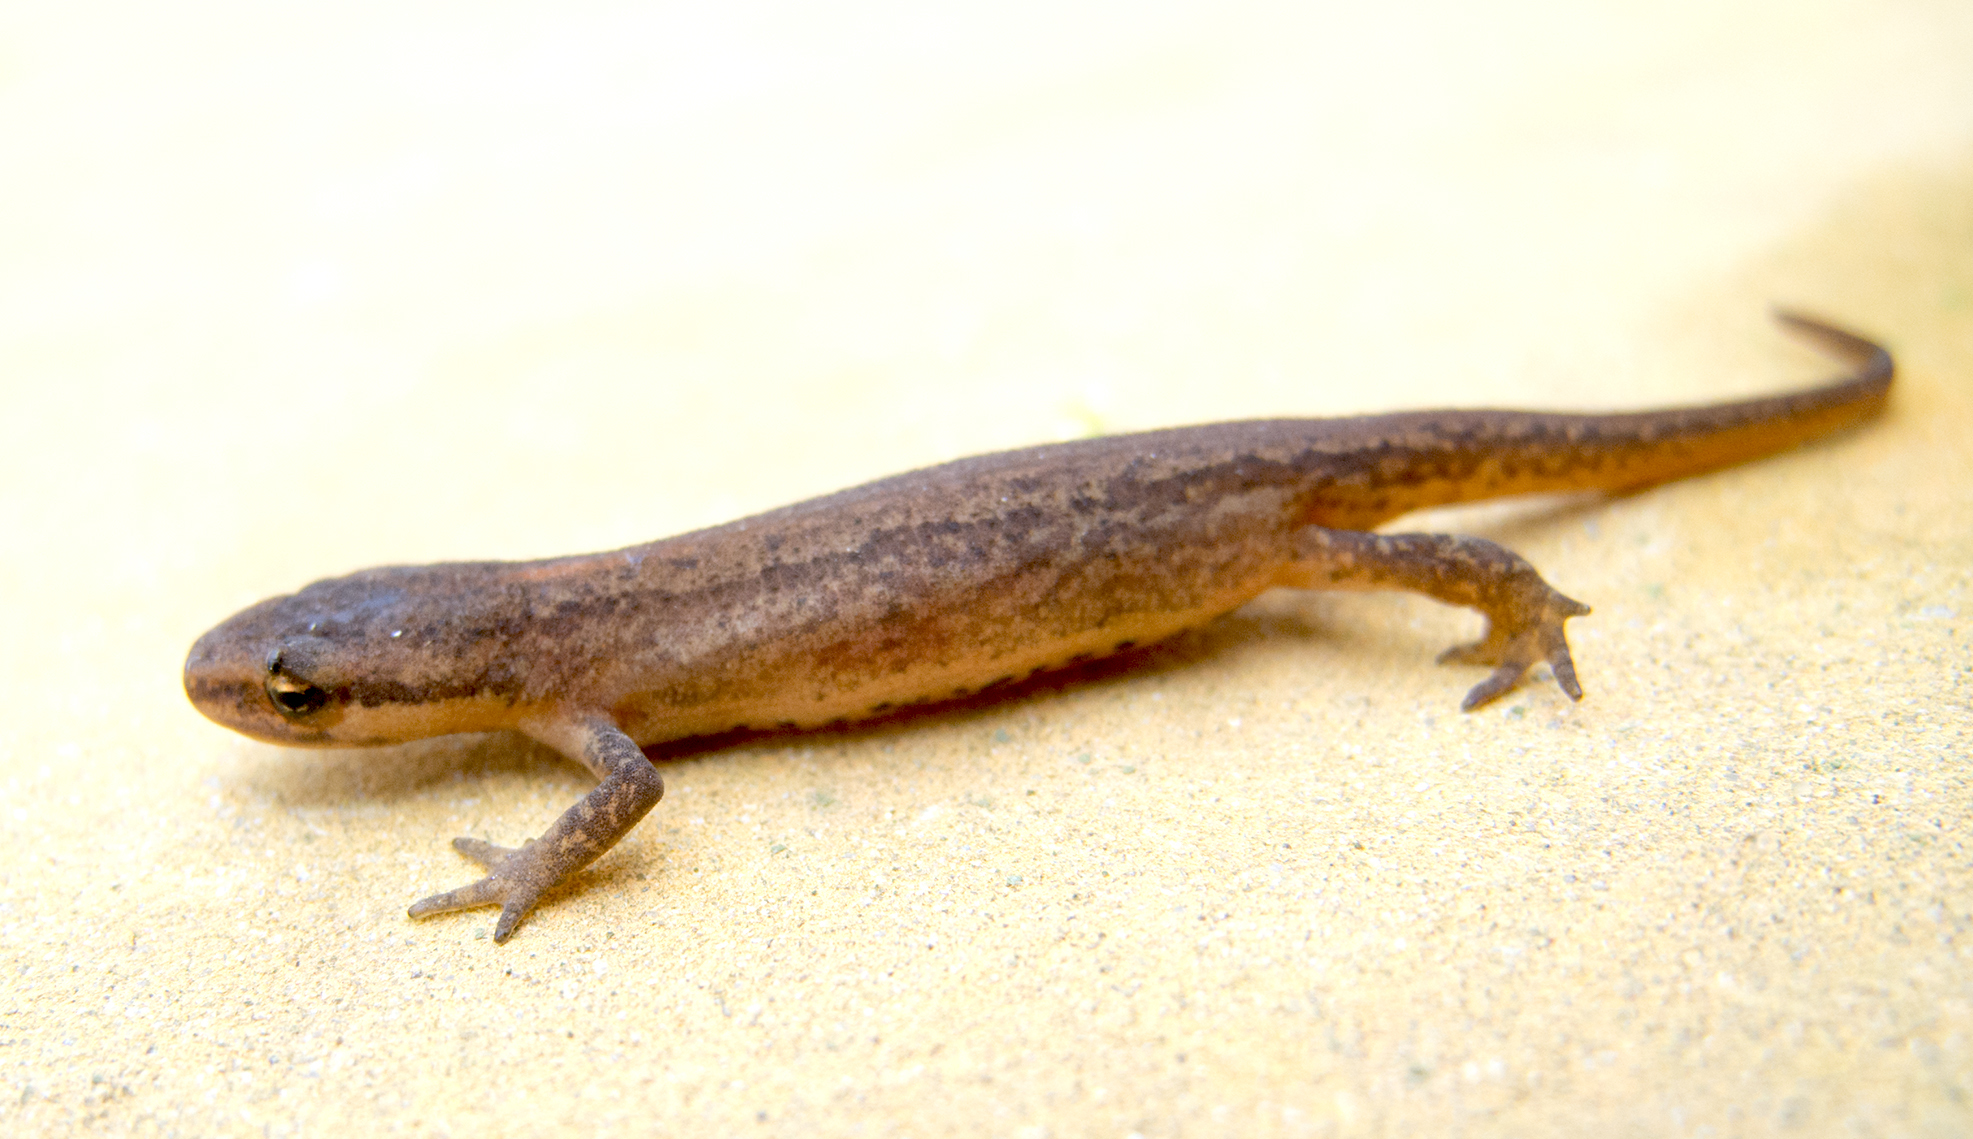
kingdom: Animalia
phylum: Chordata
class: Amphibia
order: Caudata
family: Salamandridae
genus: Lissotriton
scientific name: Lissotriton schmidtleri
